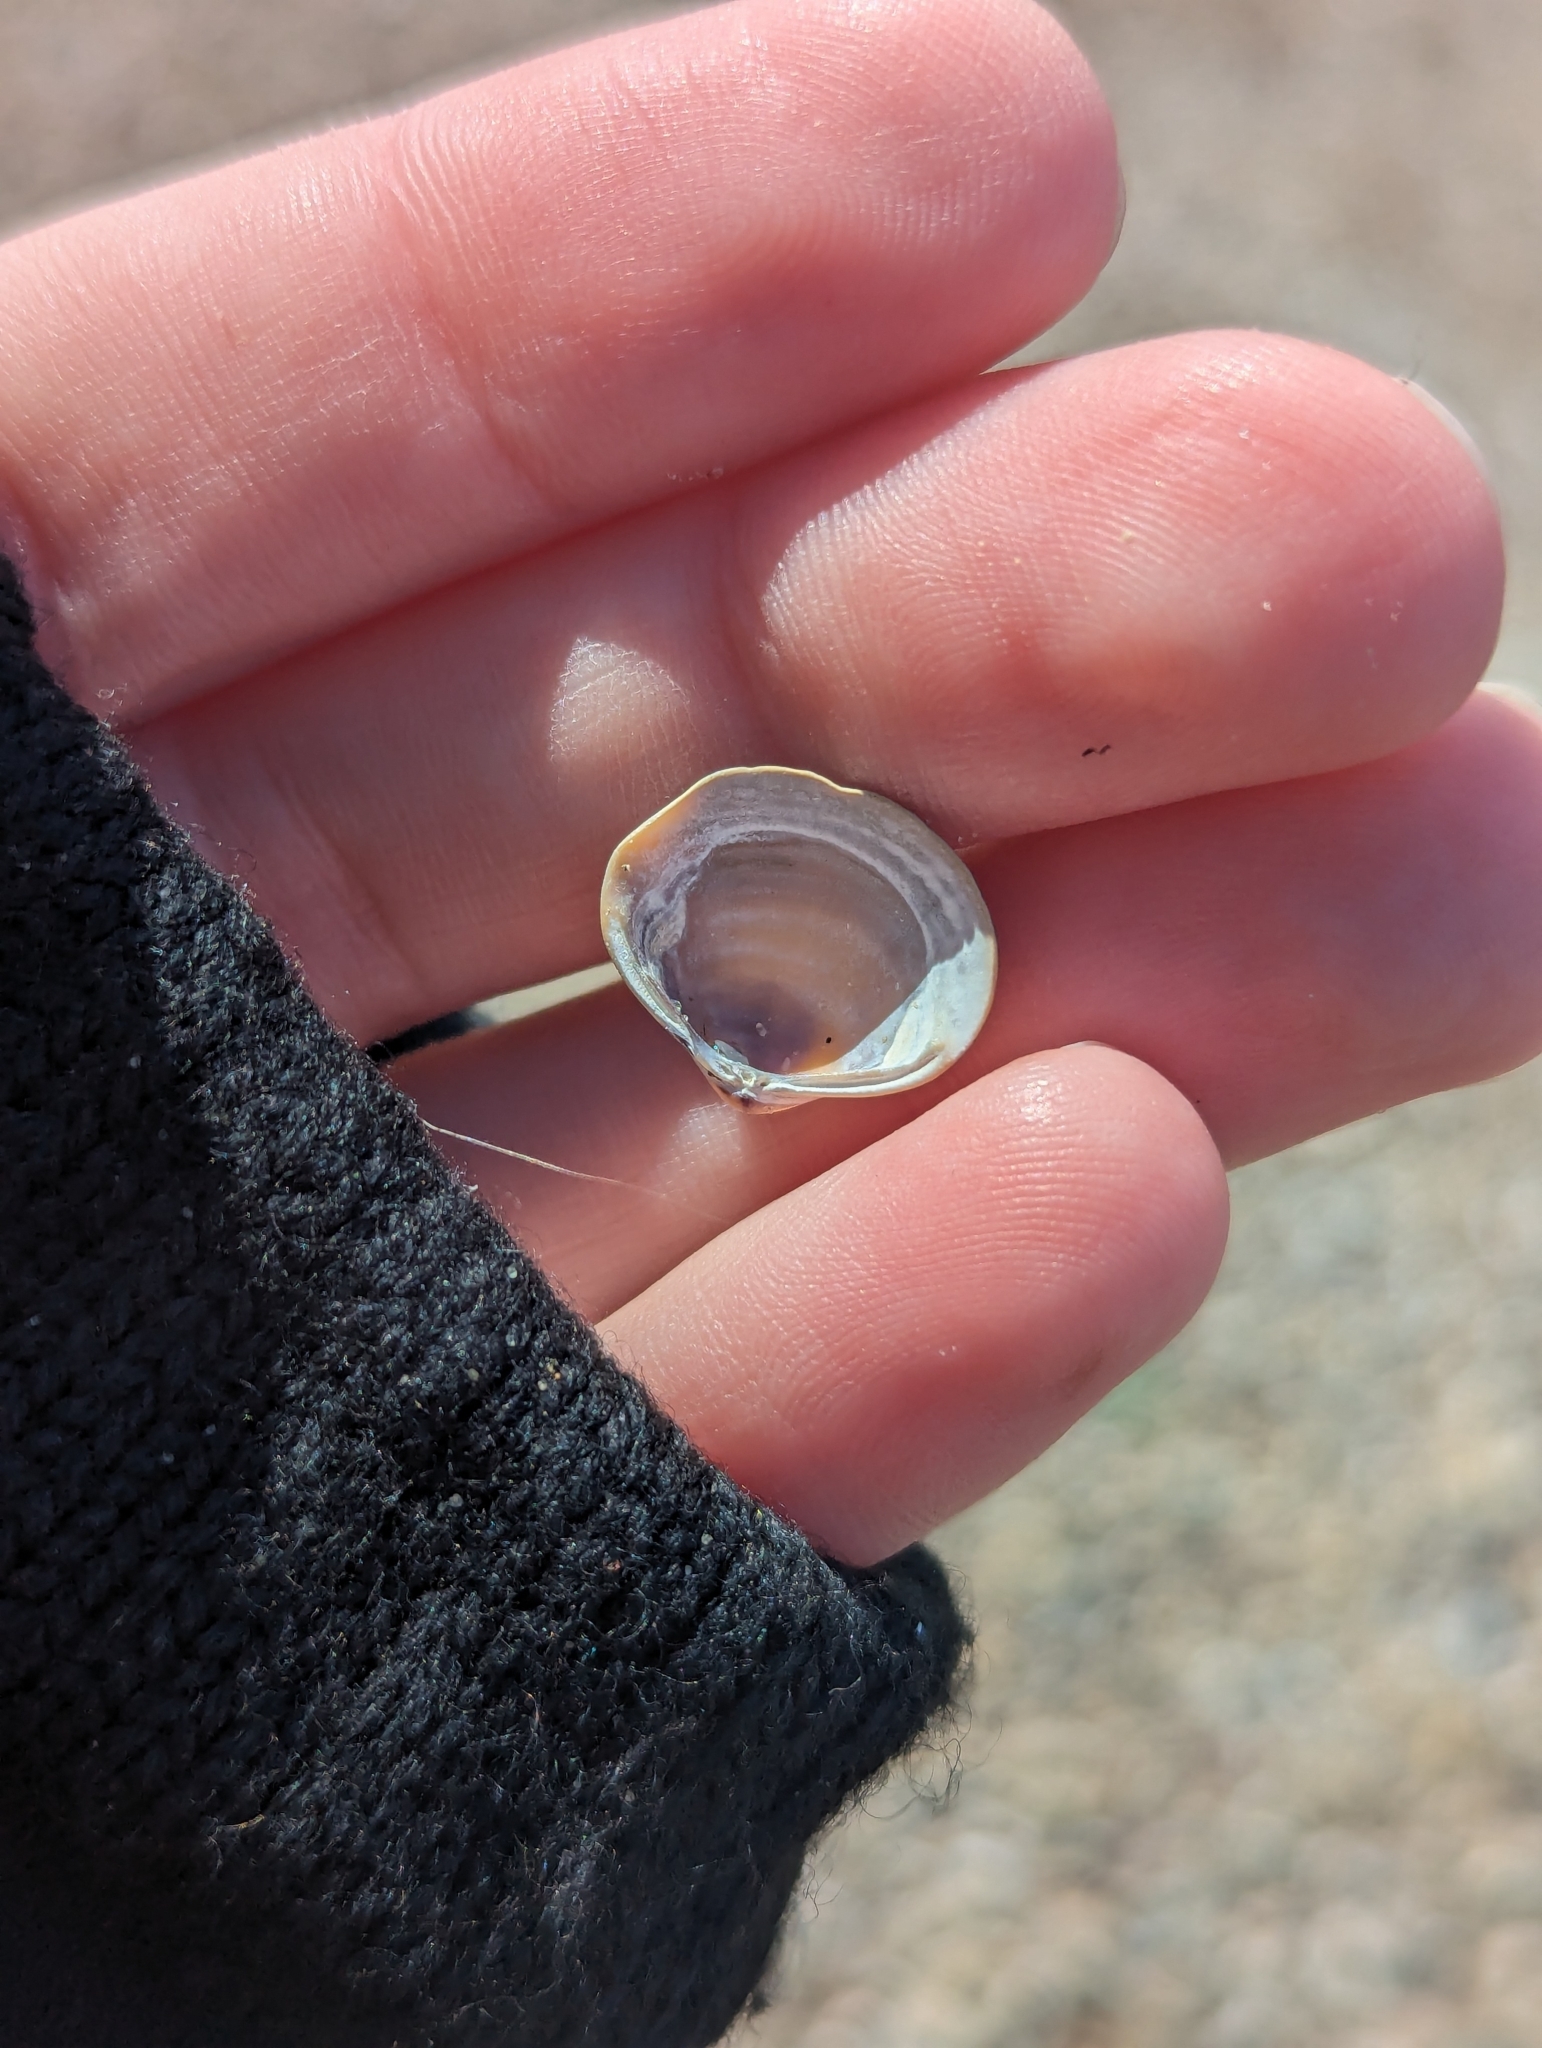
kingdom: Animalia
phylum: Mollusca
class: Bivalvia
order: Venerida
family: Cyrenidae
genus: Corbicula
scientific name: Corbicula fluminea
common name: Asian clam
